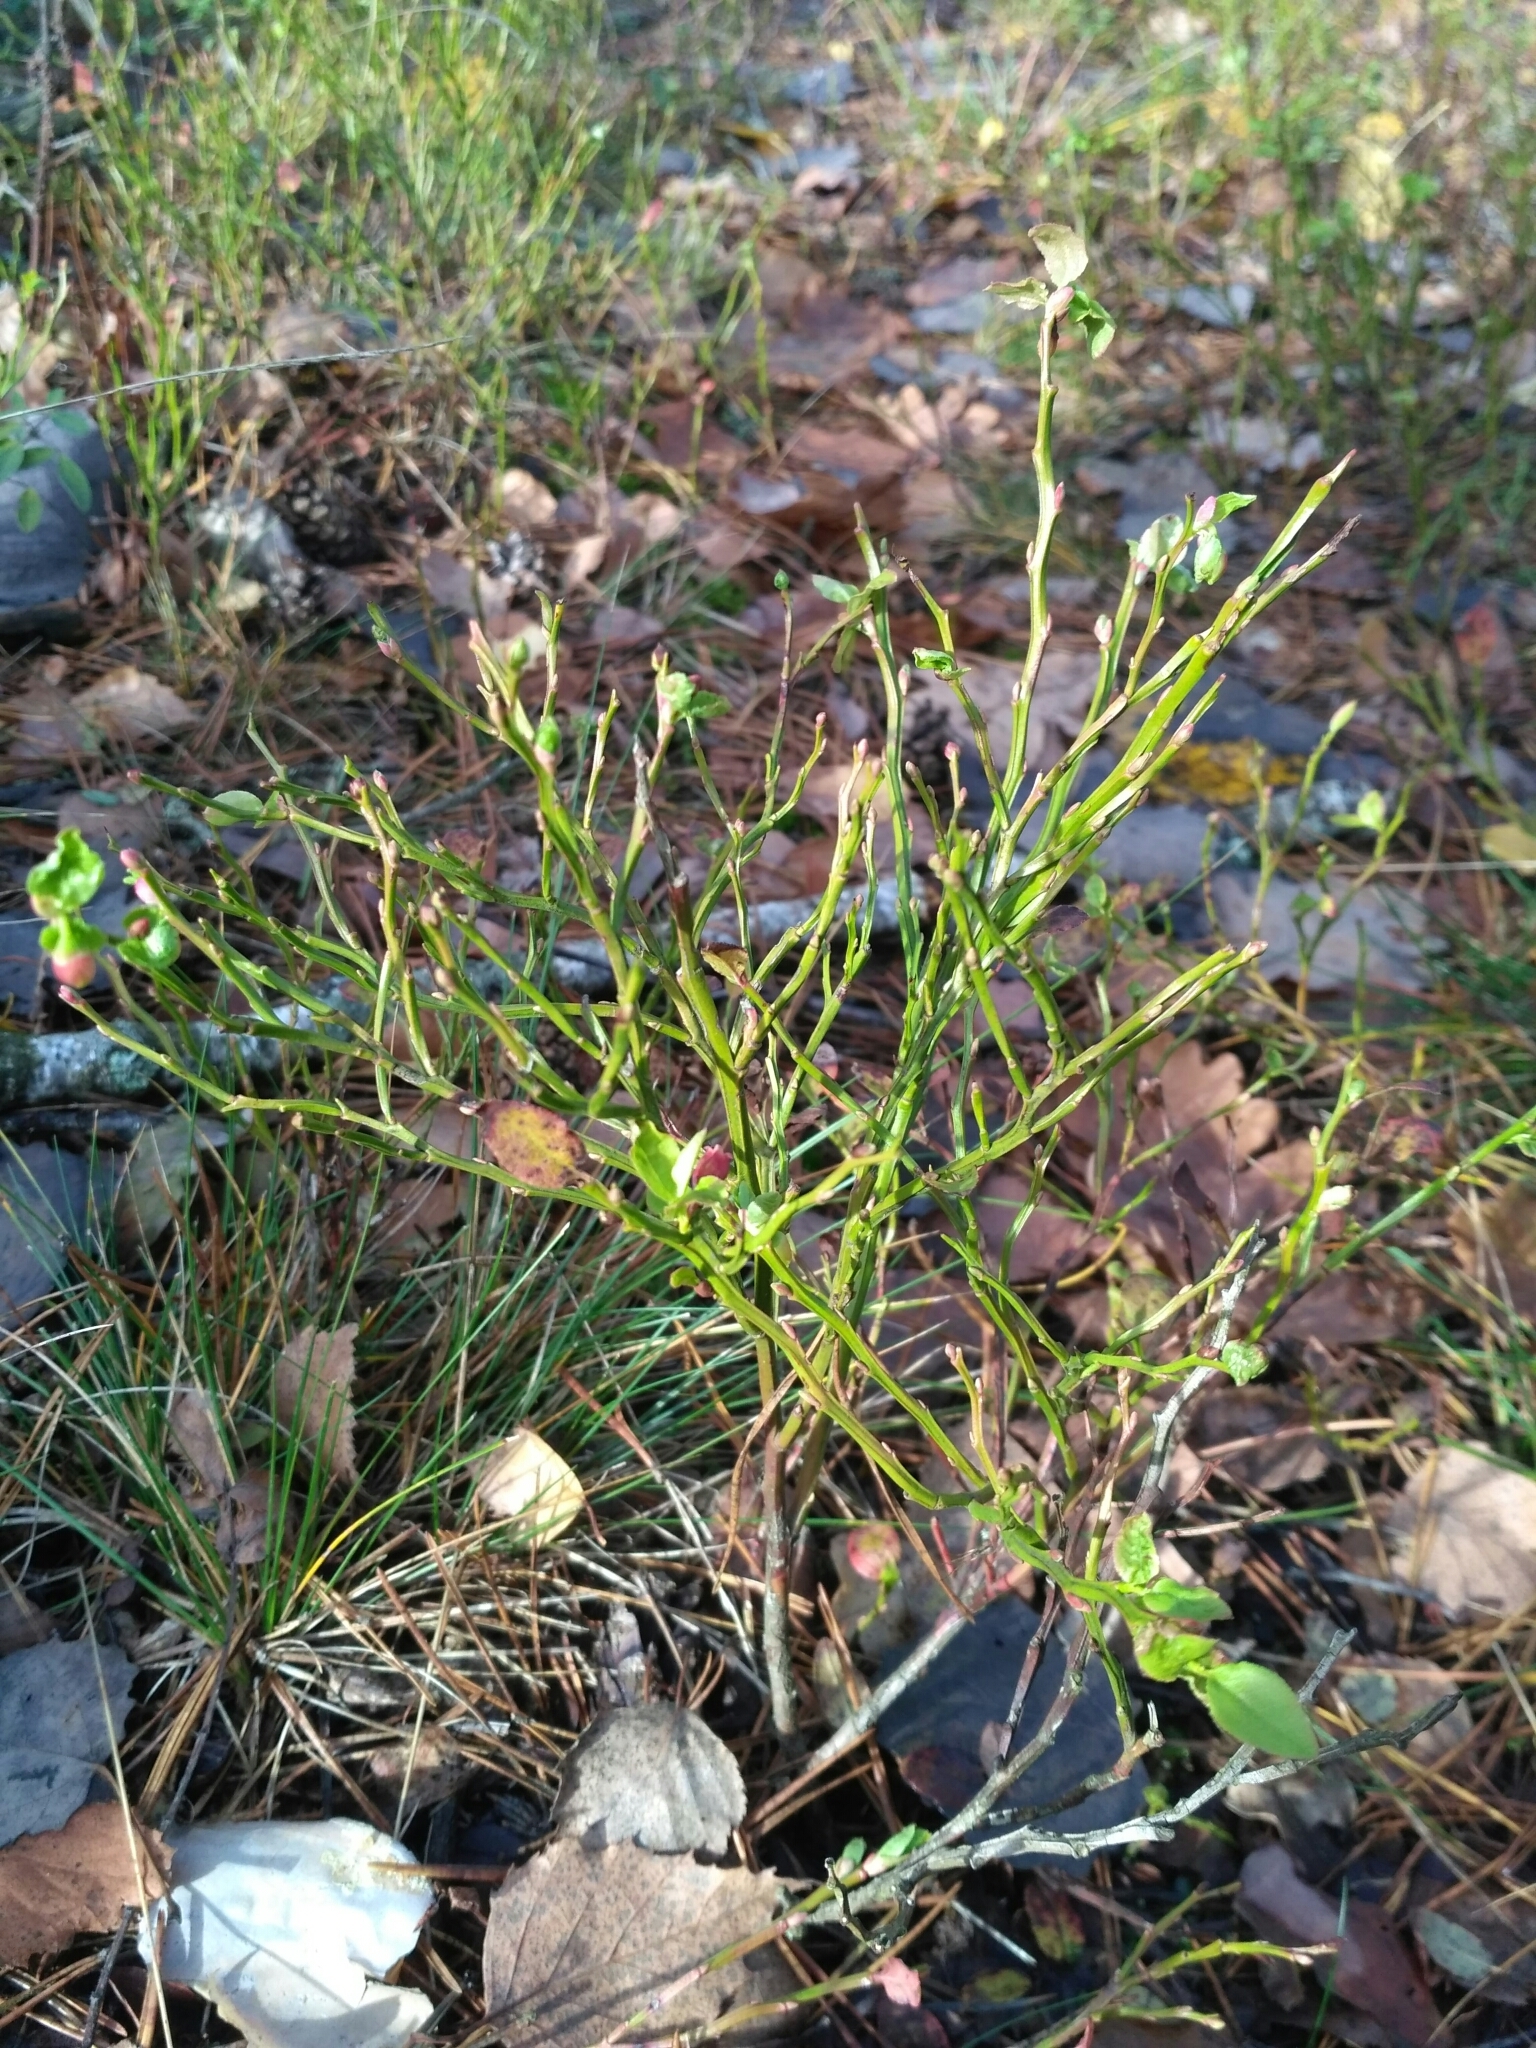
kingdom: Plantae
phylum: Tracheophyta
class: Magnoliopsida
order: Ericales
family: Ericaceae
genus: Vaccinium
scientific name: Vaccinium myrtillus
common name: Bilberry
